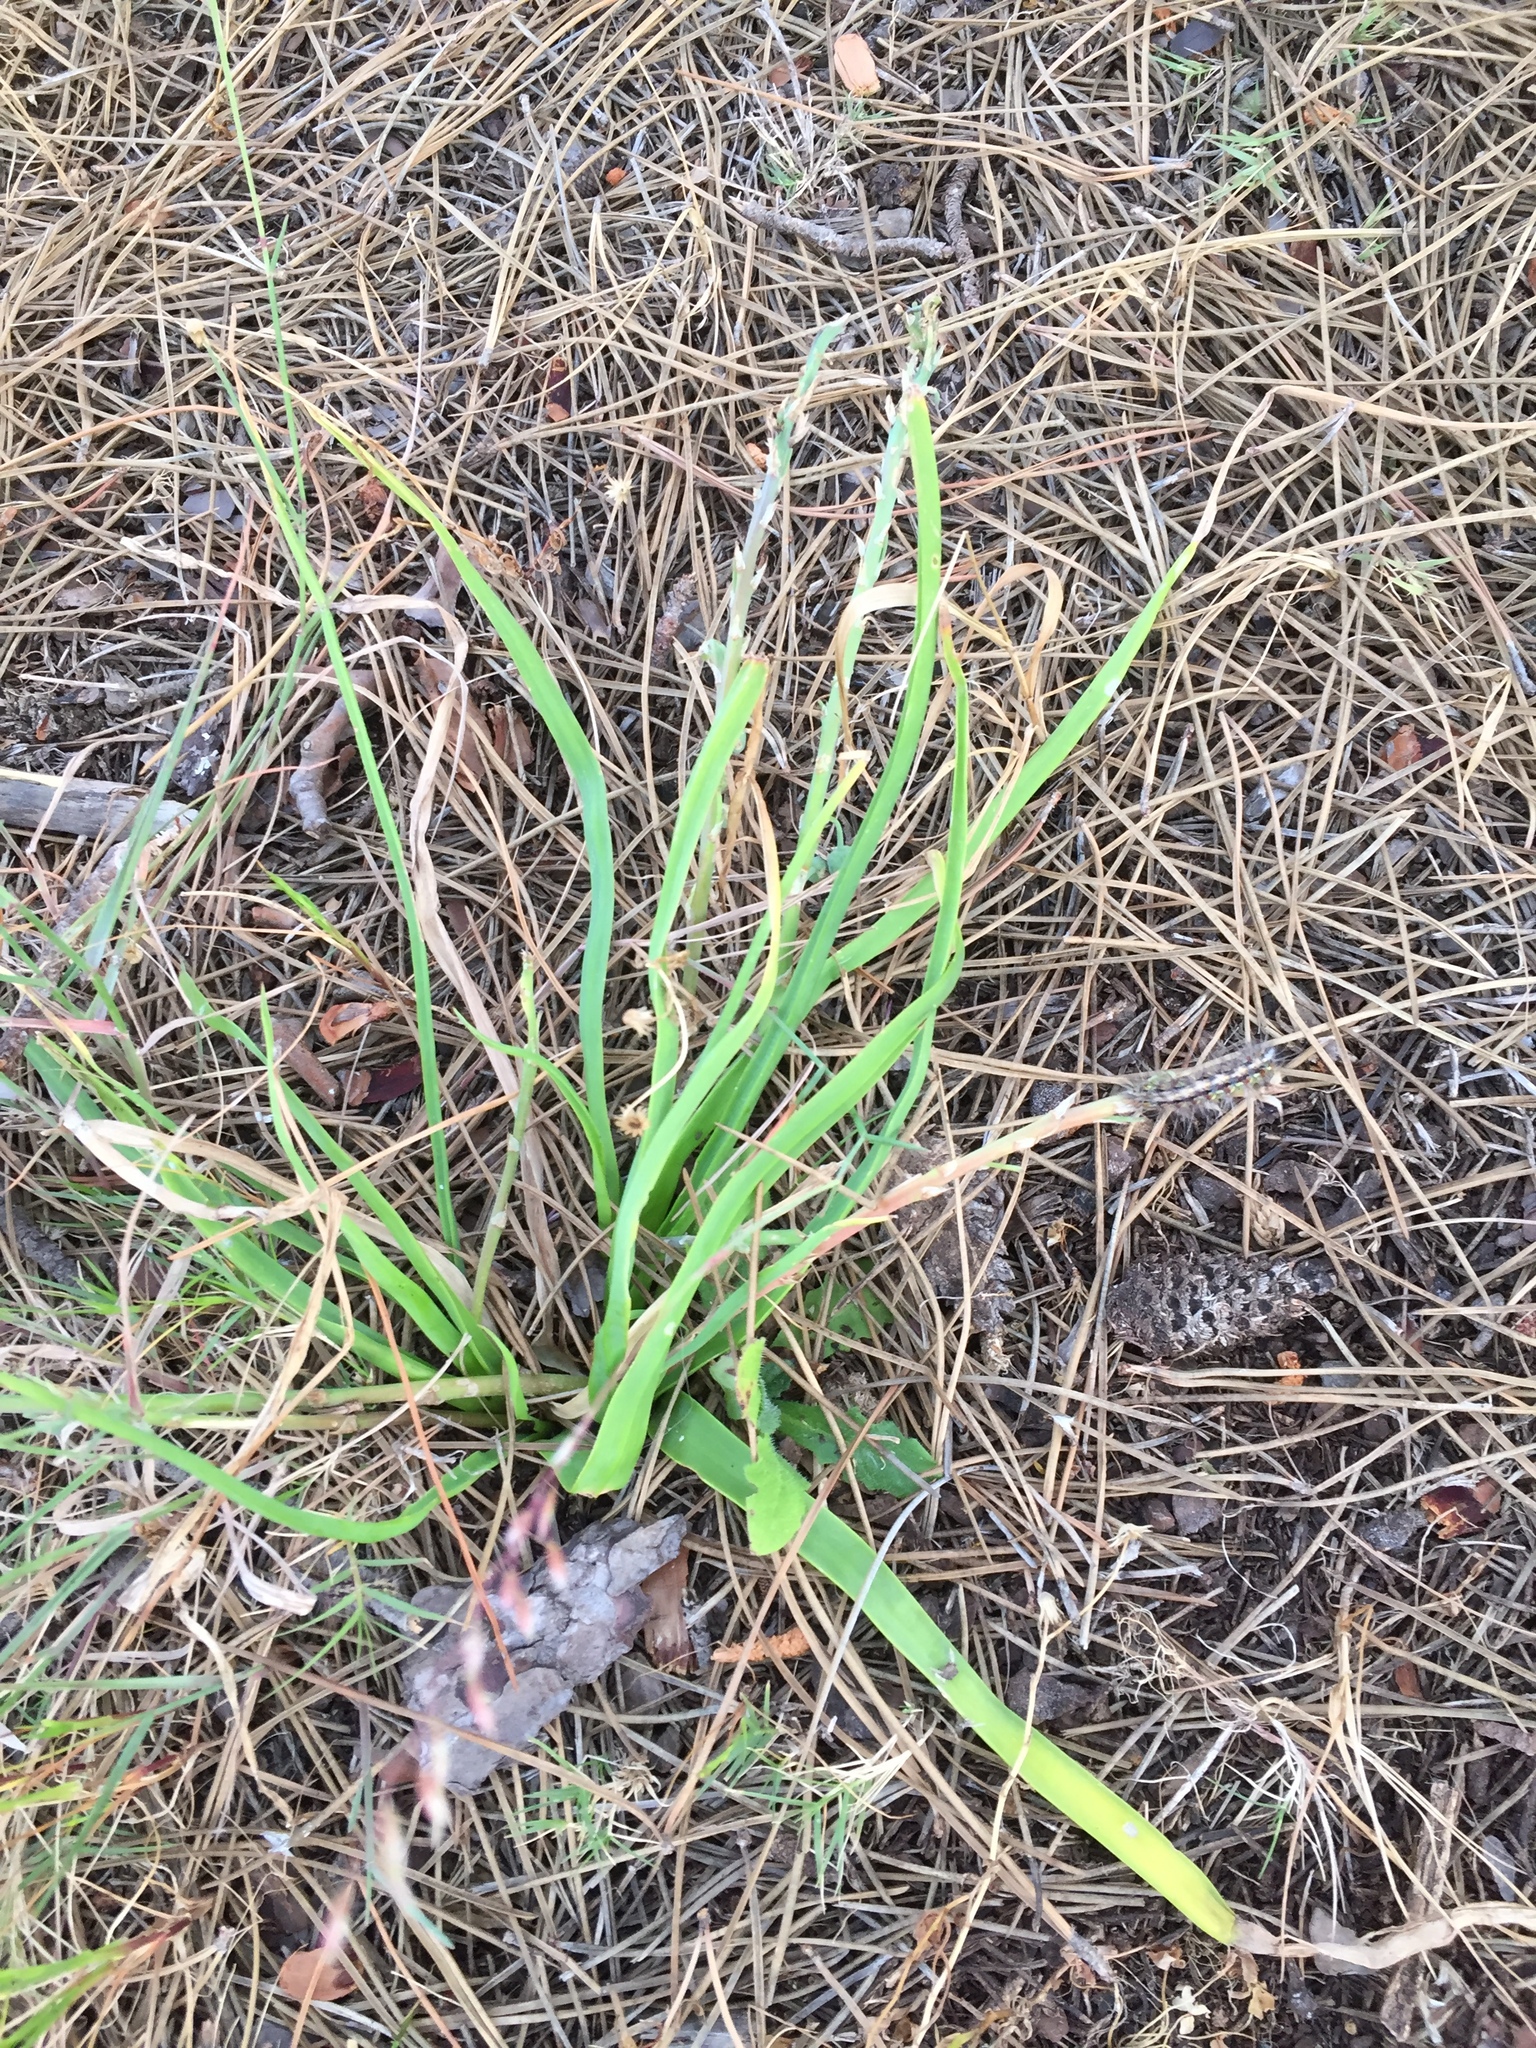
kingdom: Plantae
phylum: Tracheophyta
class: Liliopsida
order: Asparagales
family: Asphodelaceae
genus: Trachyandra
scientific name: Trachyandra ciliata
